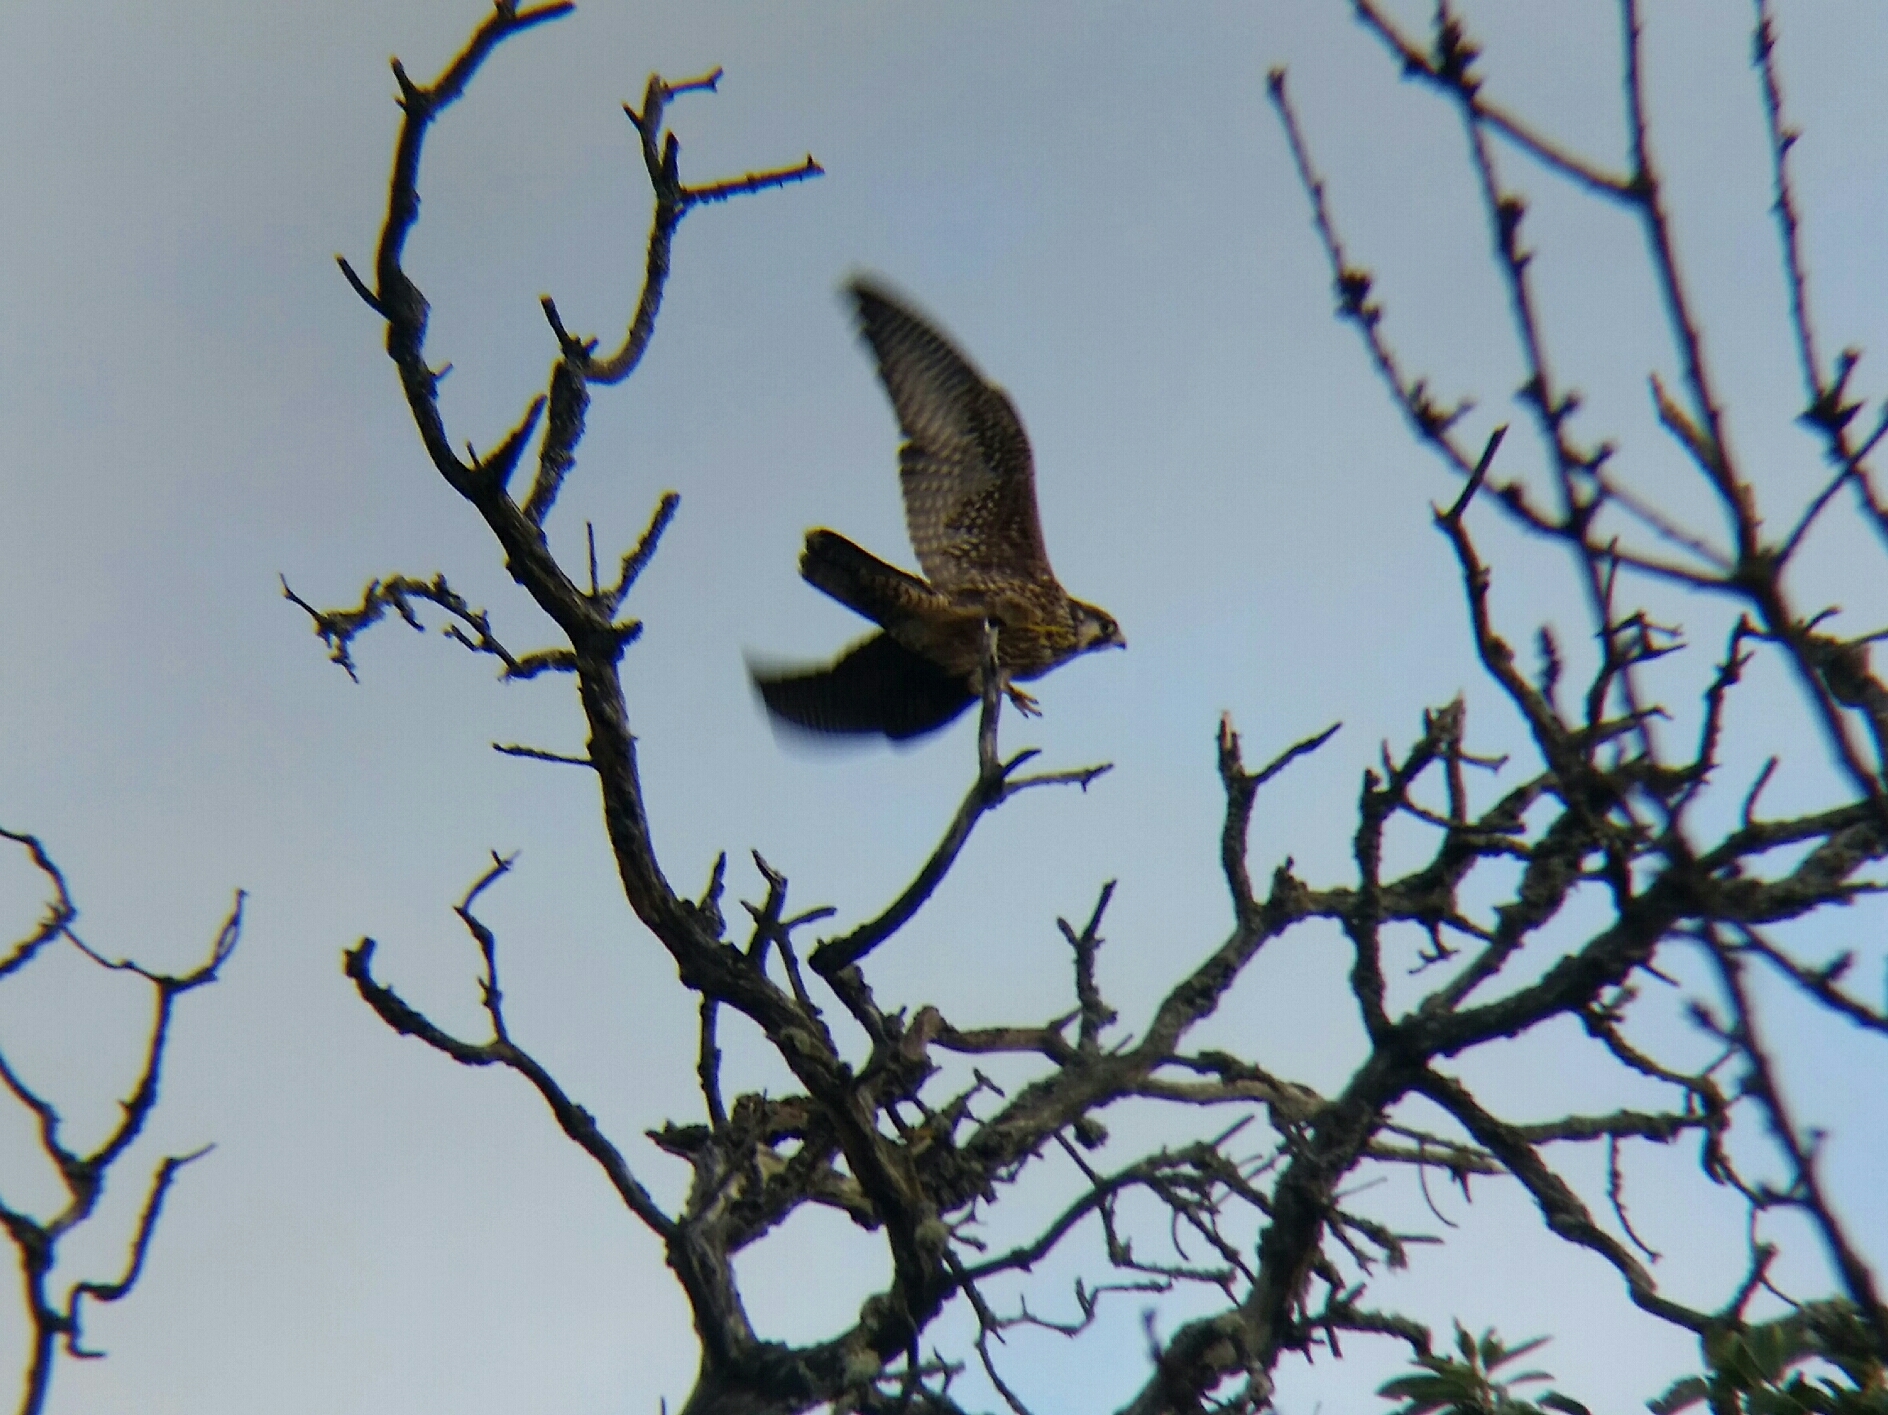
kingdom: Animalia
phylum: Chordata
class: Aves
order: Falconiformes
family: Falconidae
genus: Falco
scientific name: Falco peregrinus
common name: Peregrine falcon
